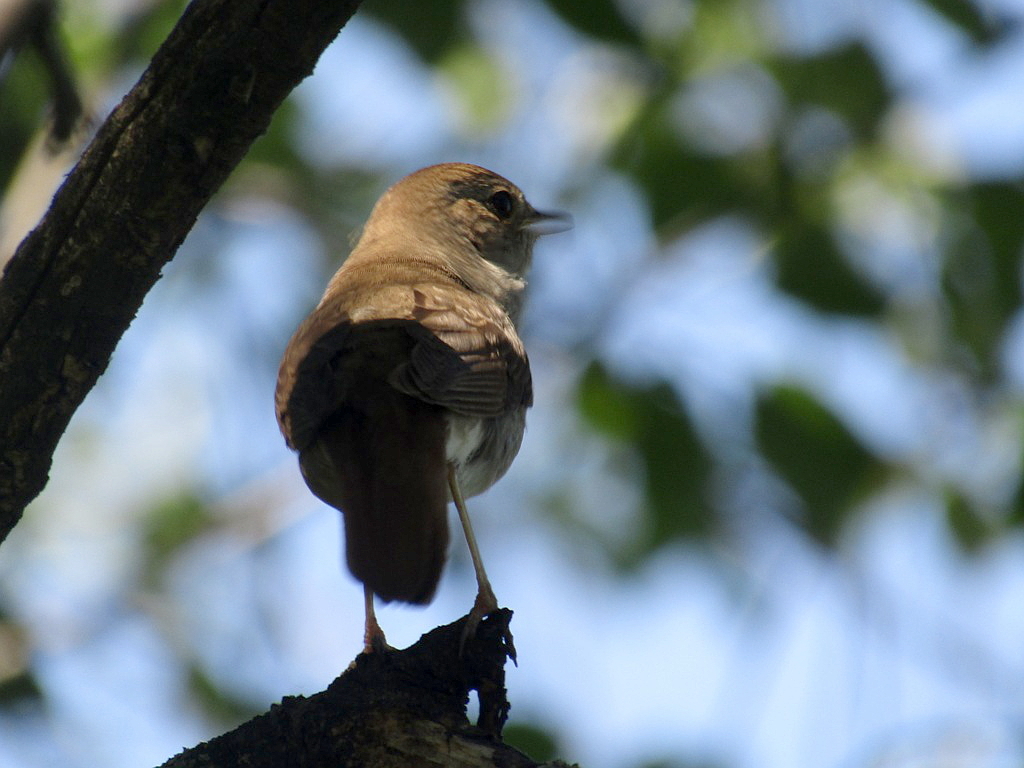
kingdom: Animalia
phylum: Chordata
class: Aves
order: Passeriformes
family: Muscicapidae
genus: Luscinia
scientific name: Luscinia luscinia
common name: Thrush nightingale
